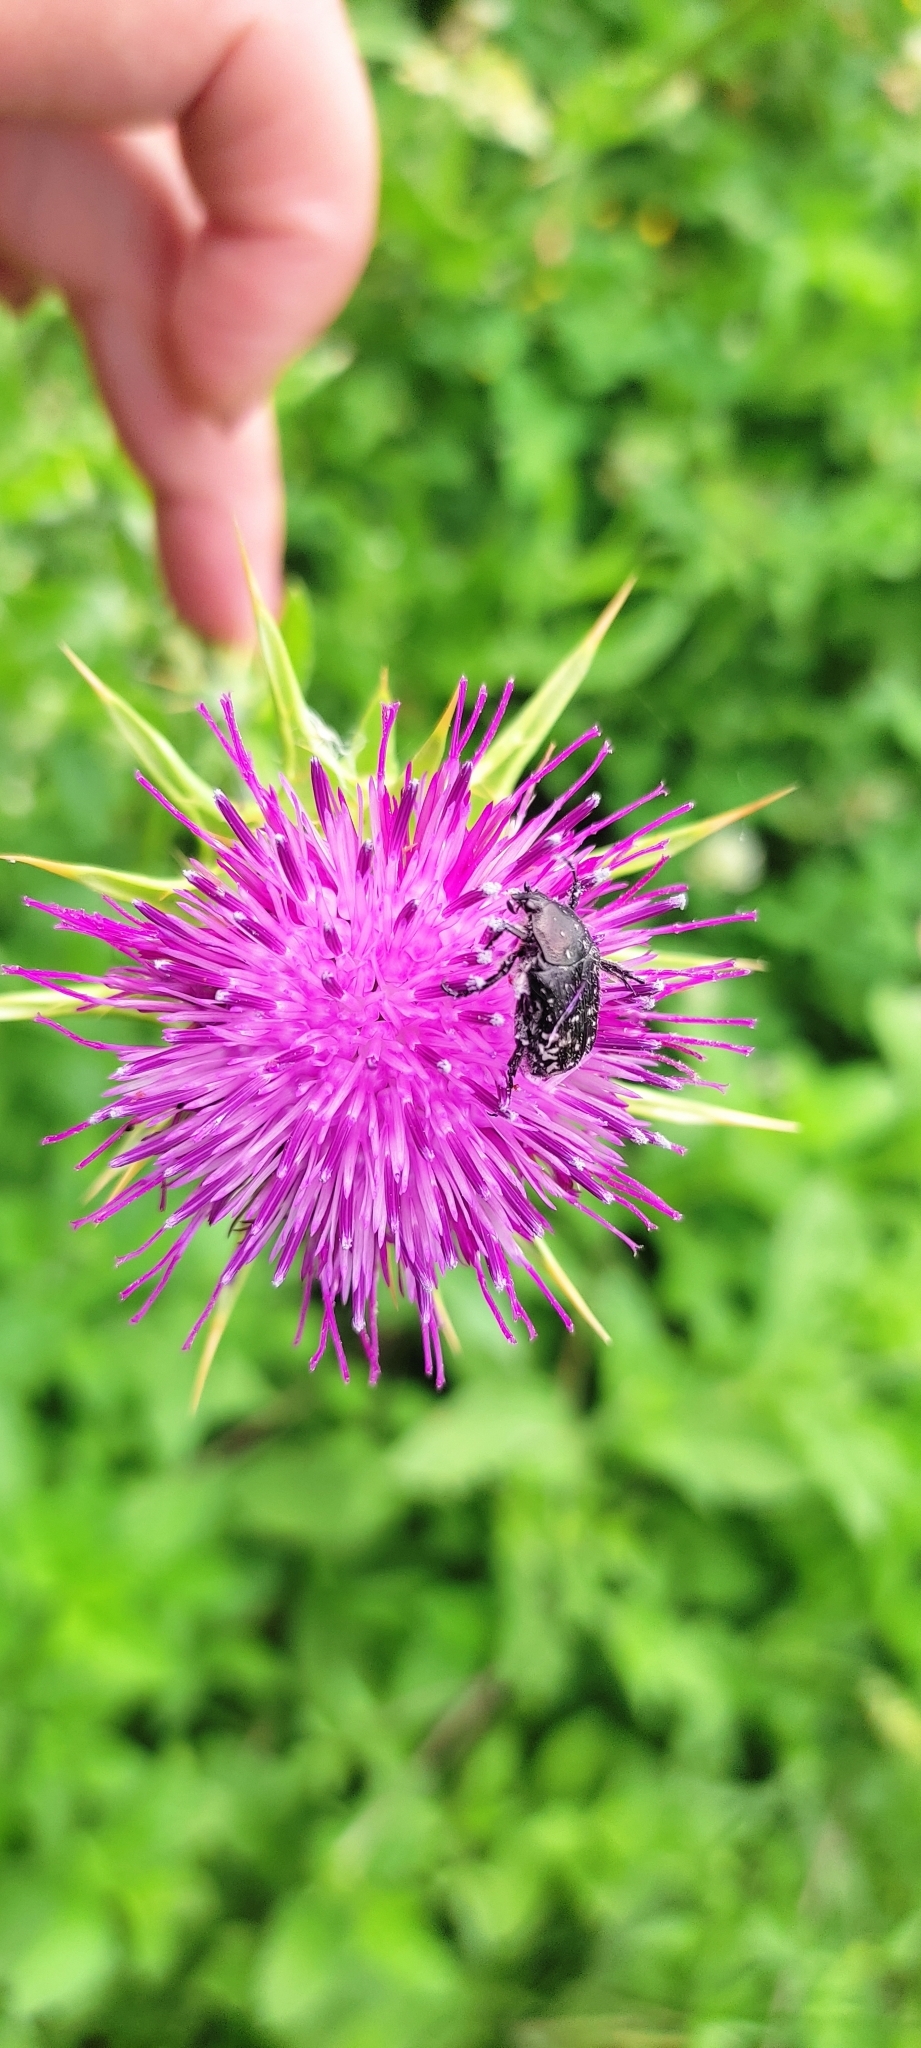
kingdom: Animalia
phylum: Arthropoda
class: Insecta
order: Coleoptera
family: Scarabaeidae
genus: Oxythyrea
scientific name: Oxythyrea funesta
